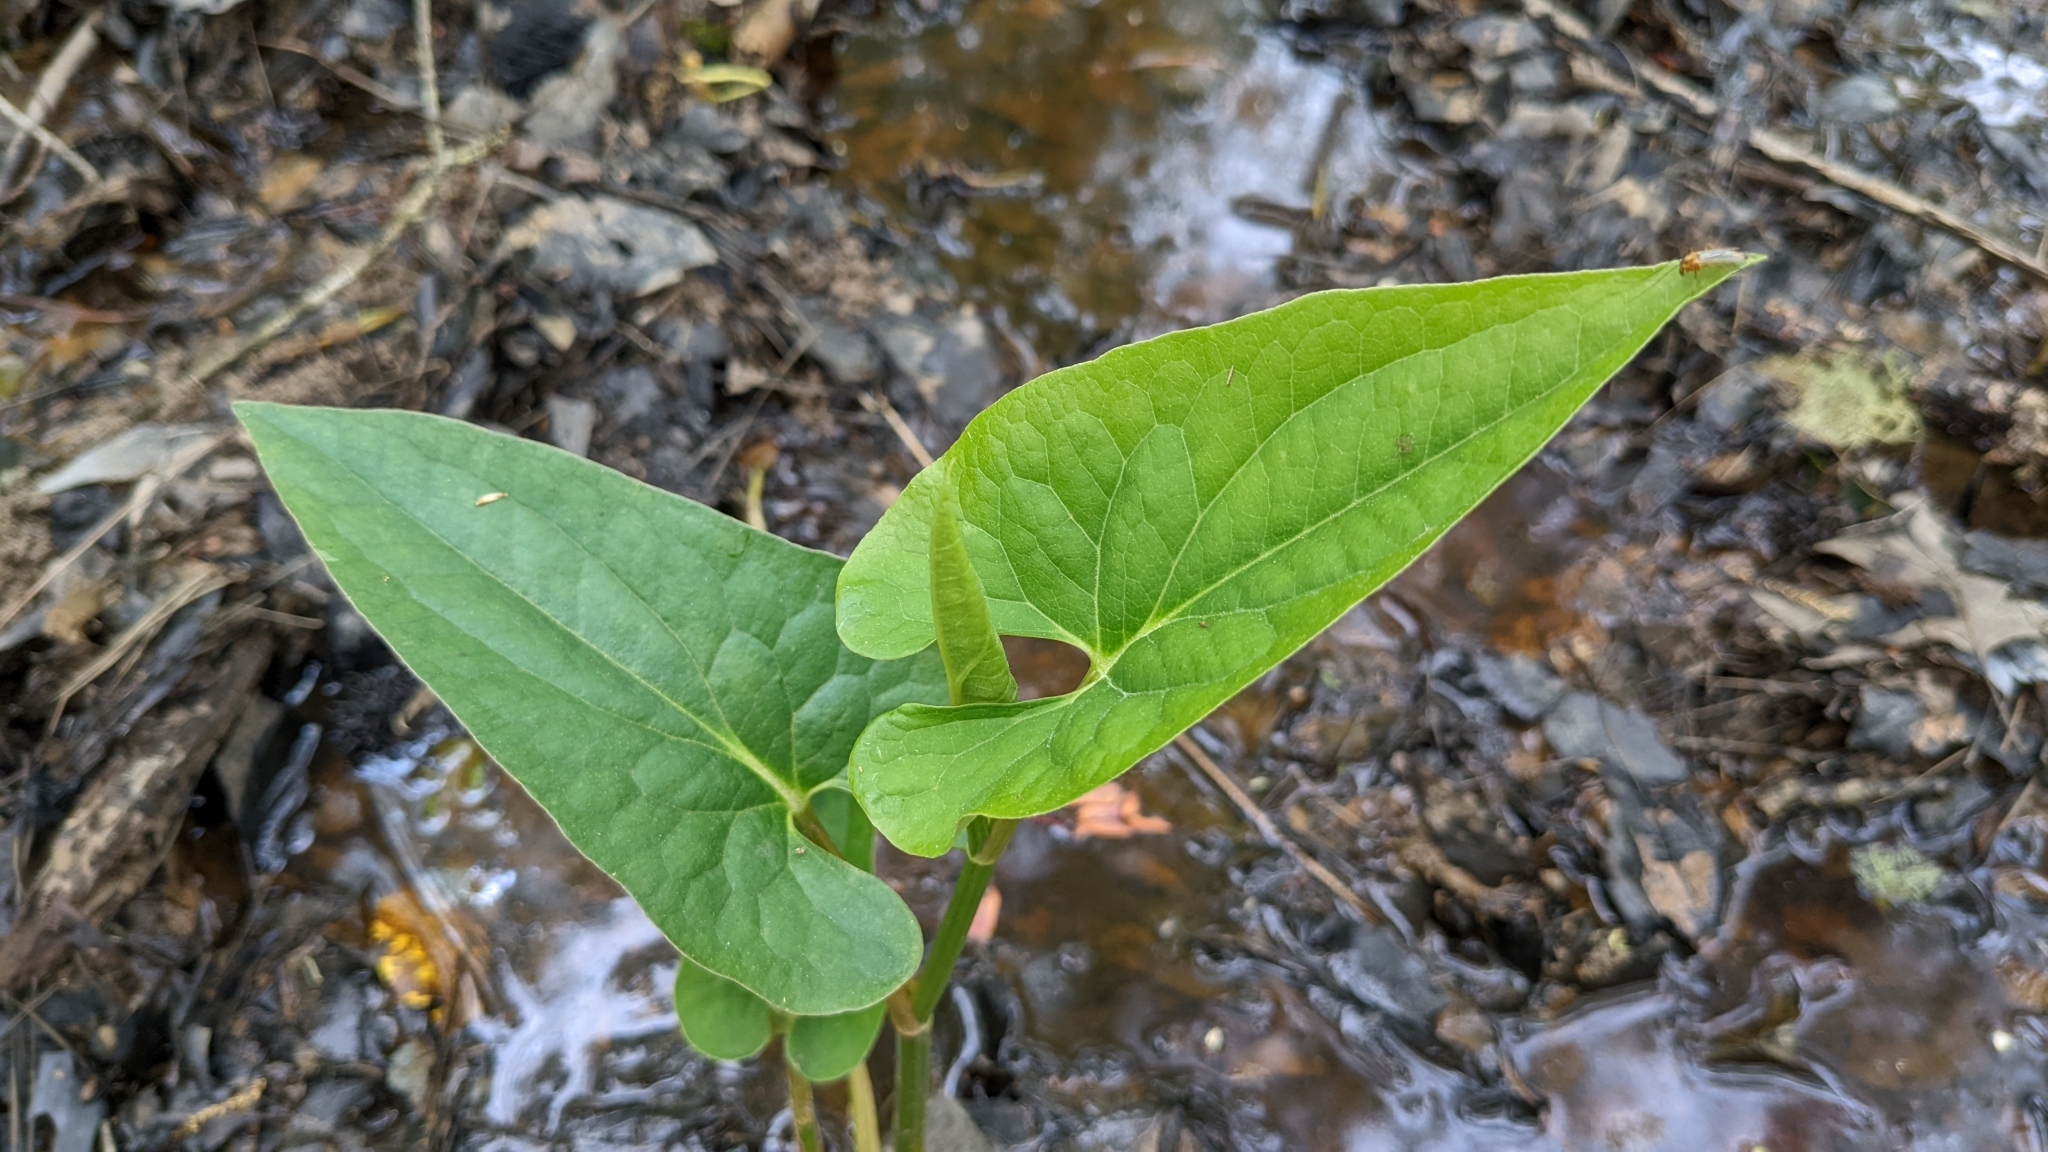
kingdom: Plantae
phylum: Tracheophyta
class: Magnoliopsida
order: Piperales
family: Saururaceae
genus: Saururus
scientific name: Saururus cernuus
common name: Lizard's-tail
